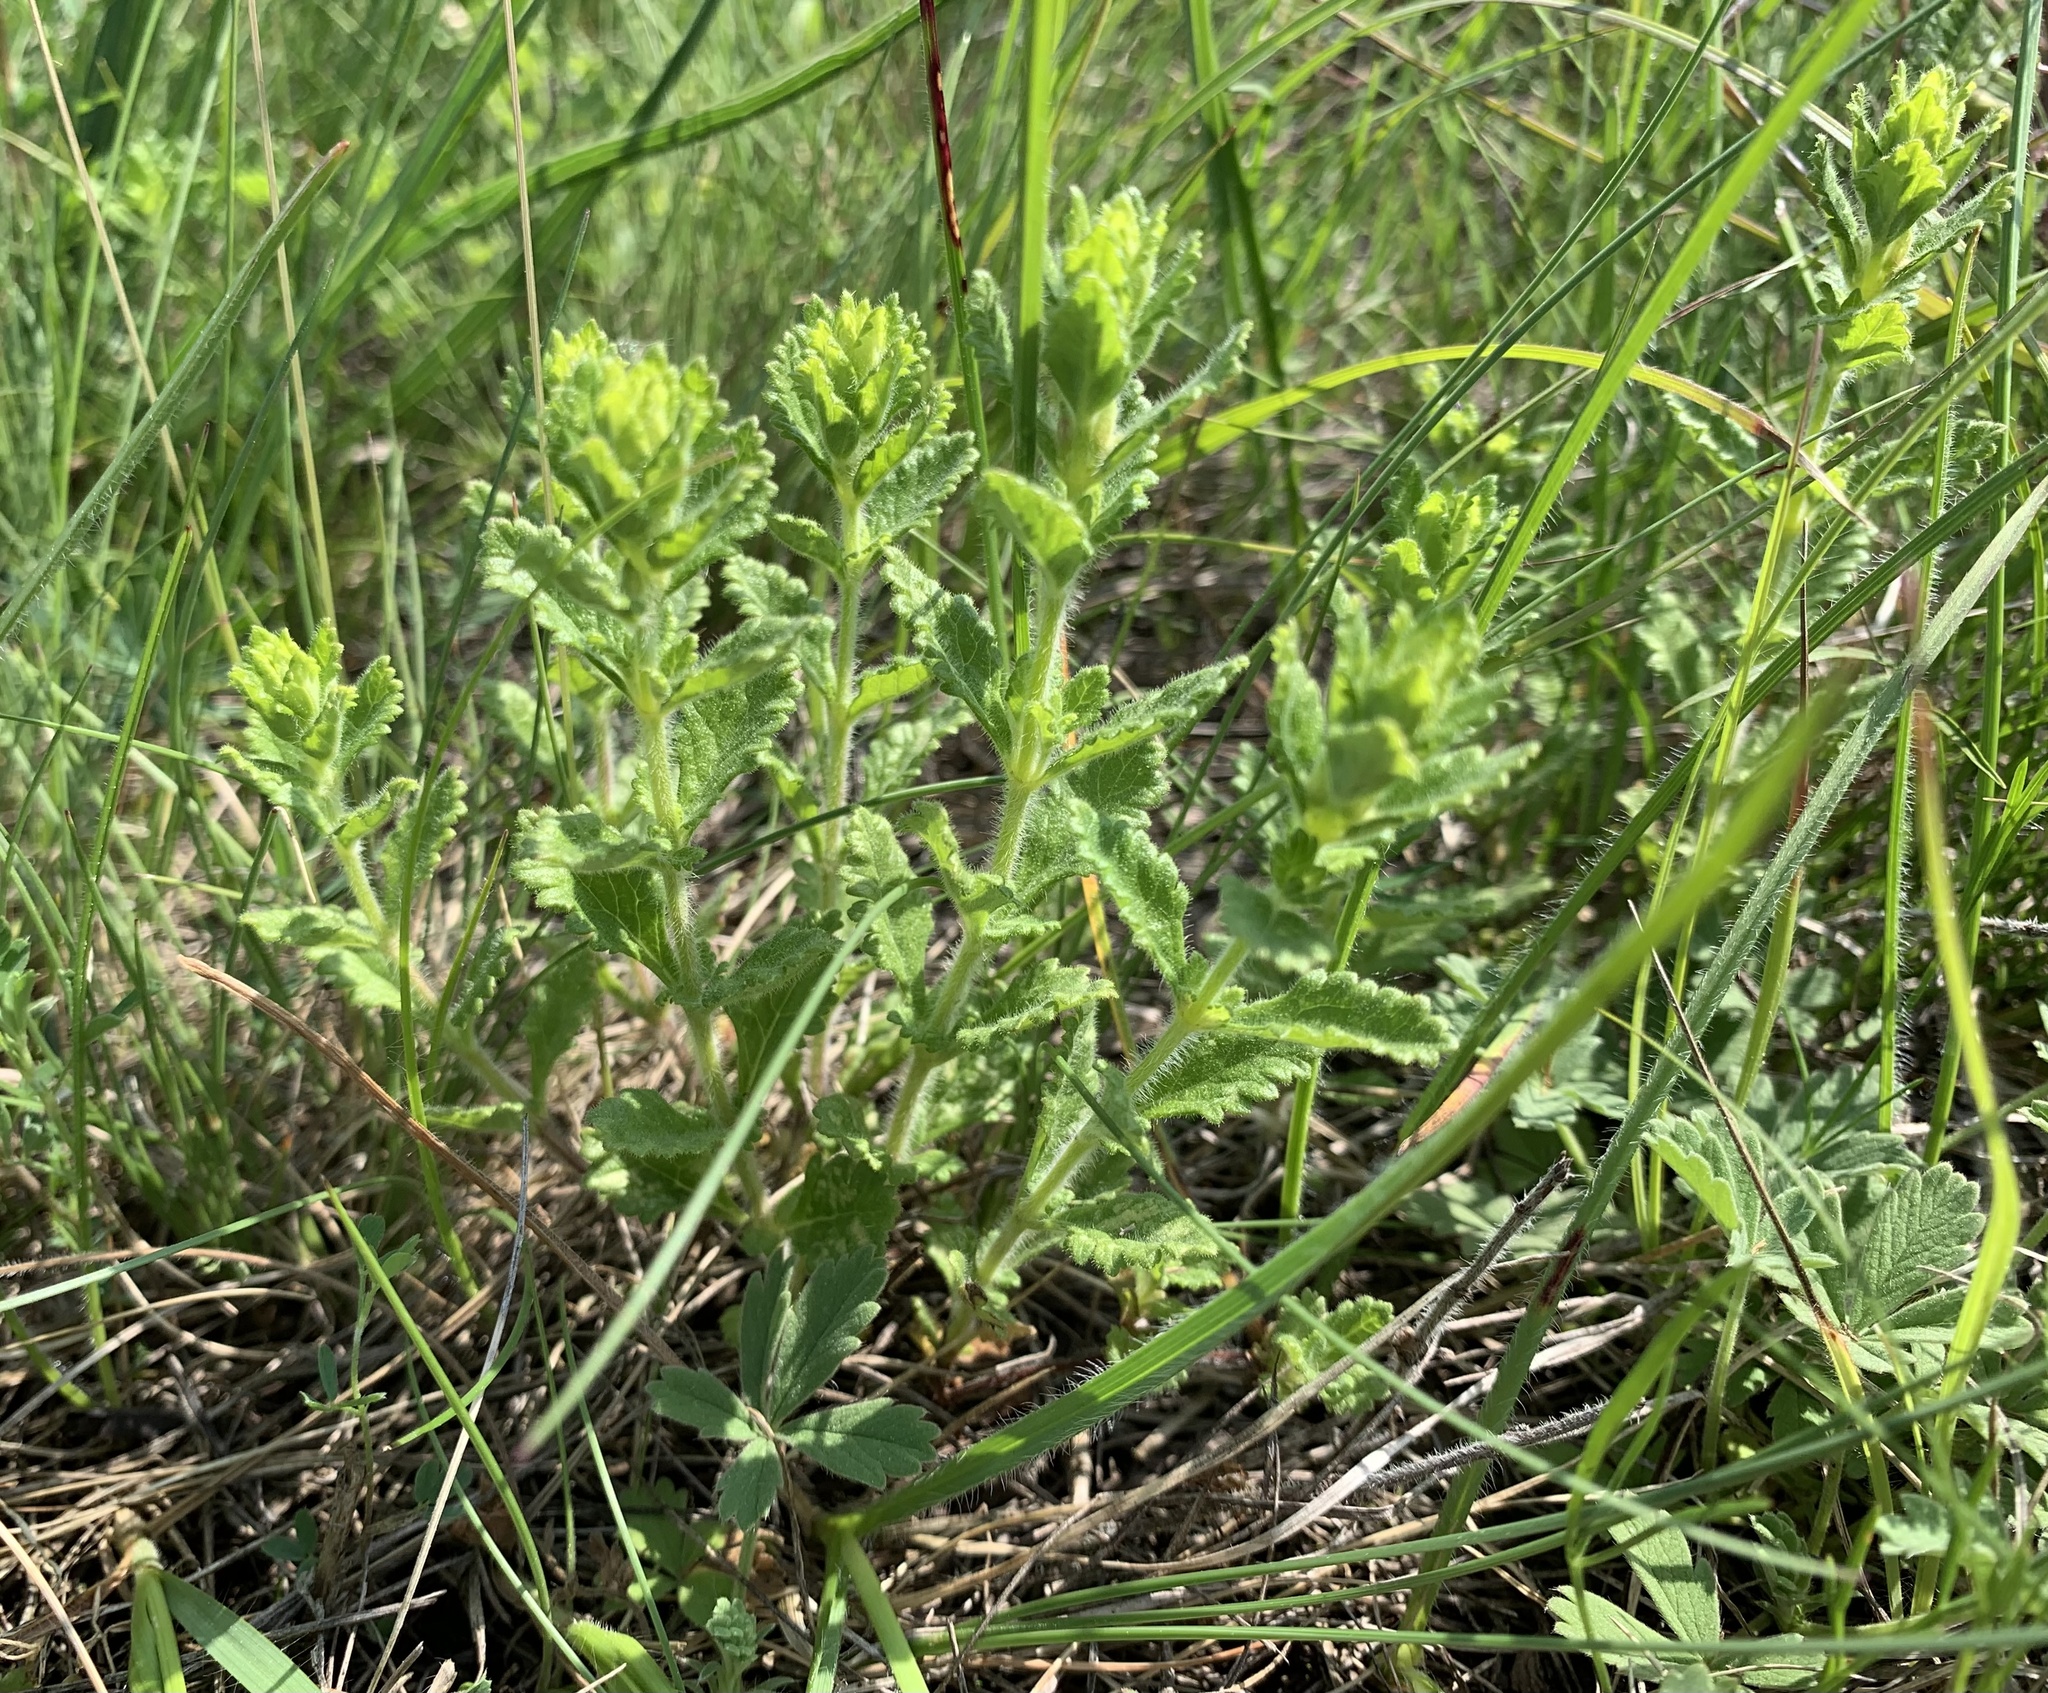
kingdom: Plantae
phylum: Tracheophyta
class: Magnoliopsida
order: Lamiales
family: Lamiaceae
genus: Teucrium
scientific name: Teucrium chamaedrys
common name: Wall germander
